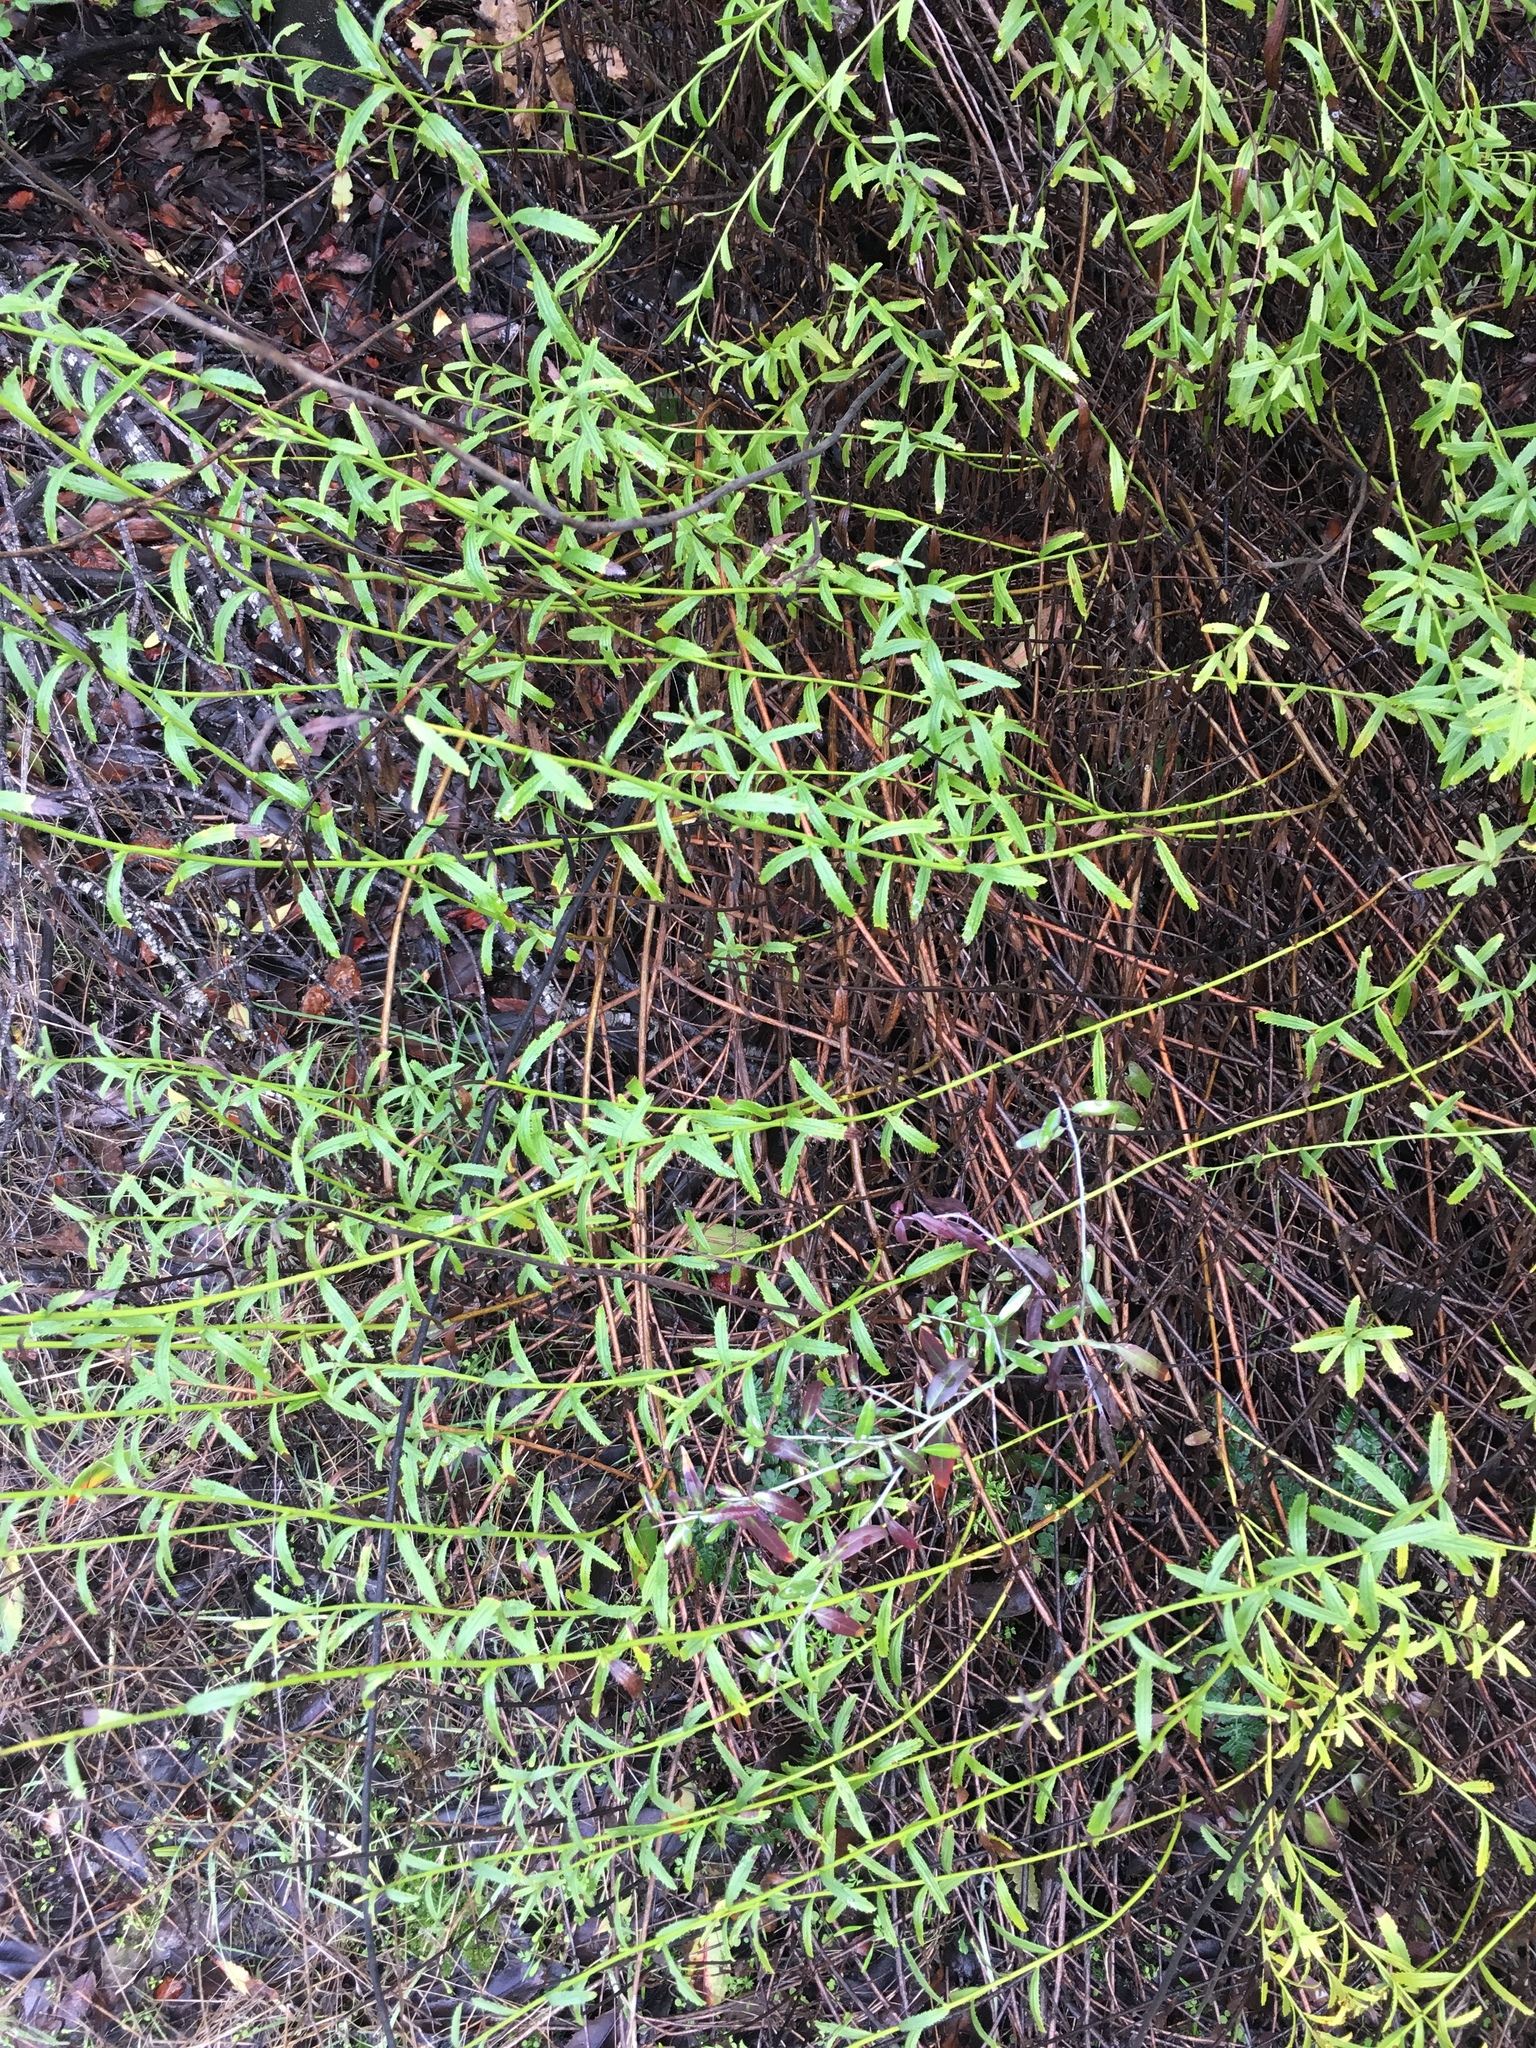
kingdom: Plantae
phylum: Tracheophyta
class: Magnoliopsida
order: Asterales
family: Asteraceae
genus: Baccharis
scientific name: Baccharis plummerae
